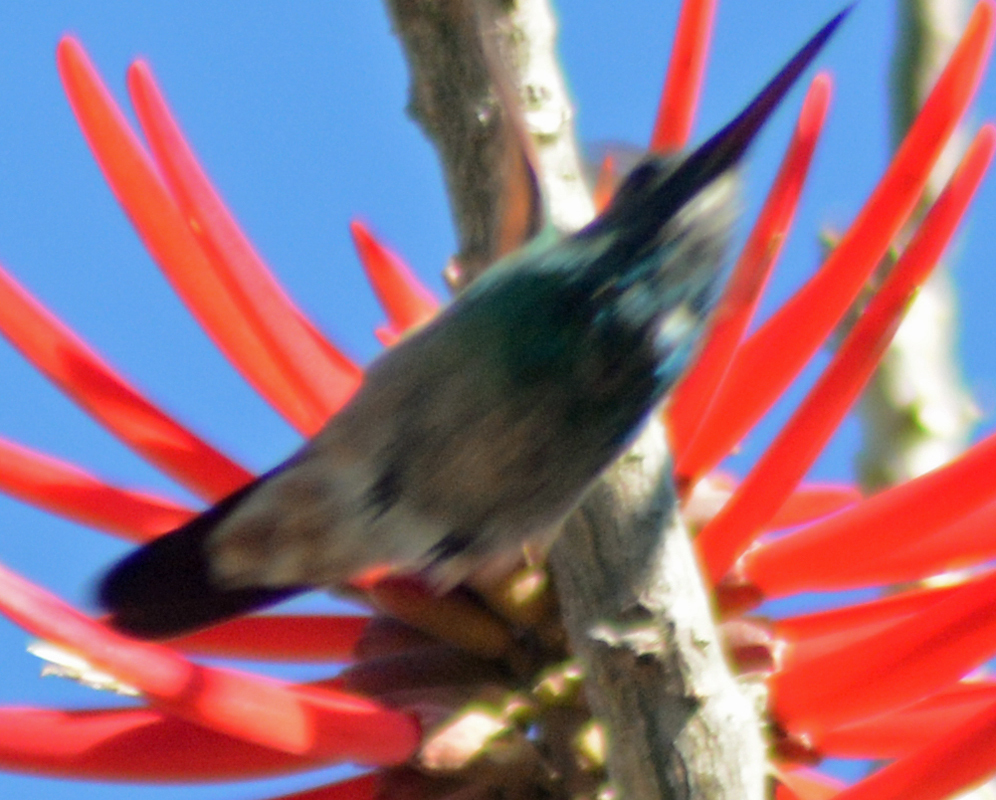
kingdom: Animalia
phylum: Chordata
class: Aves
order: Apodiformes
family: Trochilidae
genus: Cynanthus
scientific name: Cynanthus latirostris
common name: Broad-billed hummingbird
